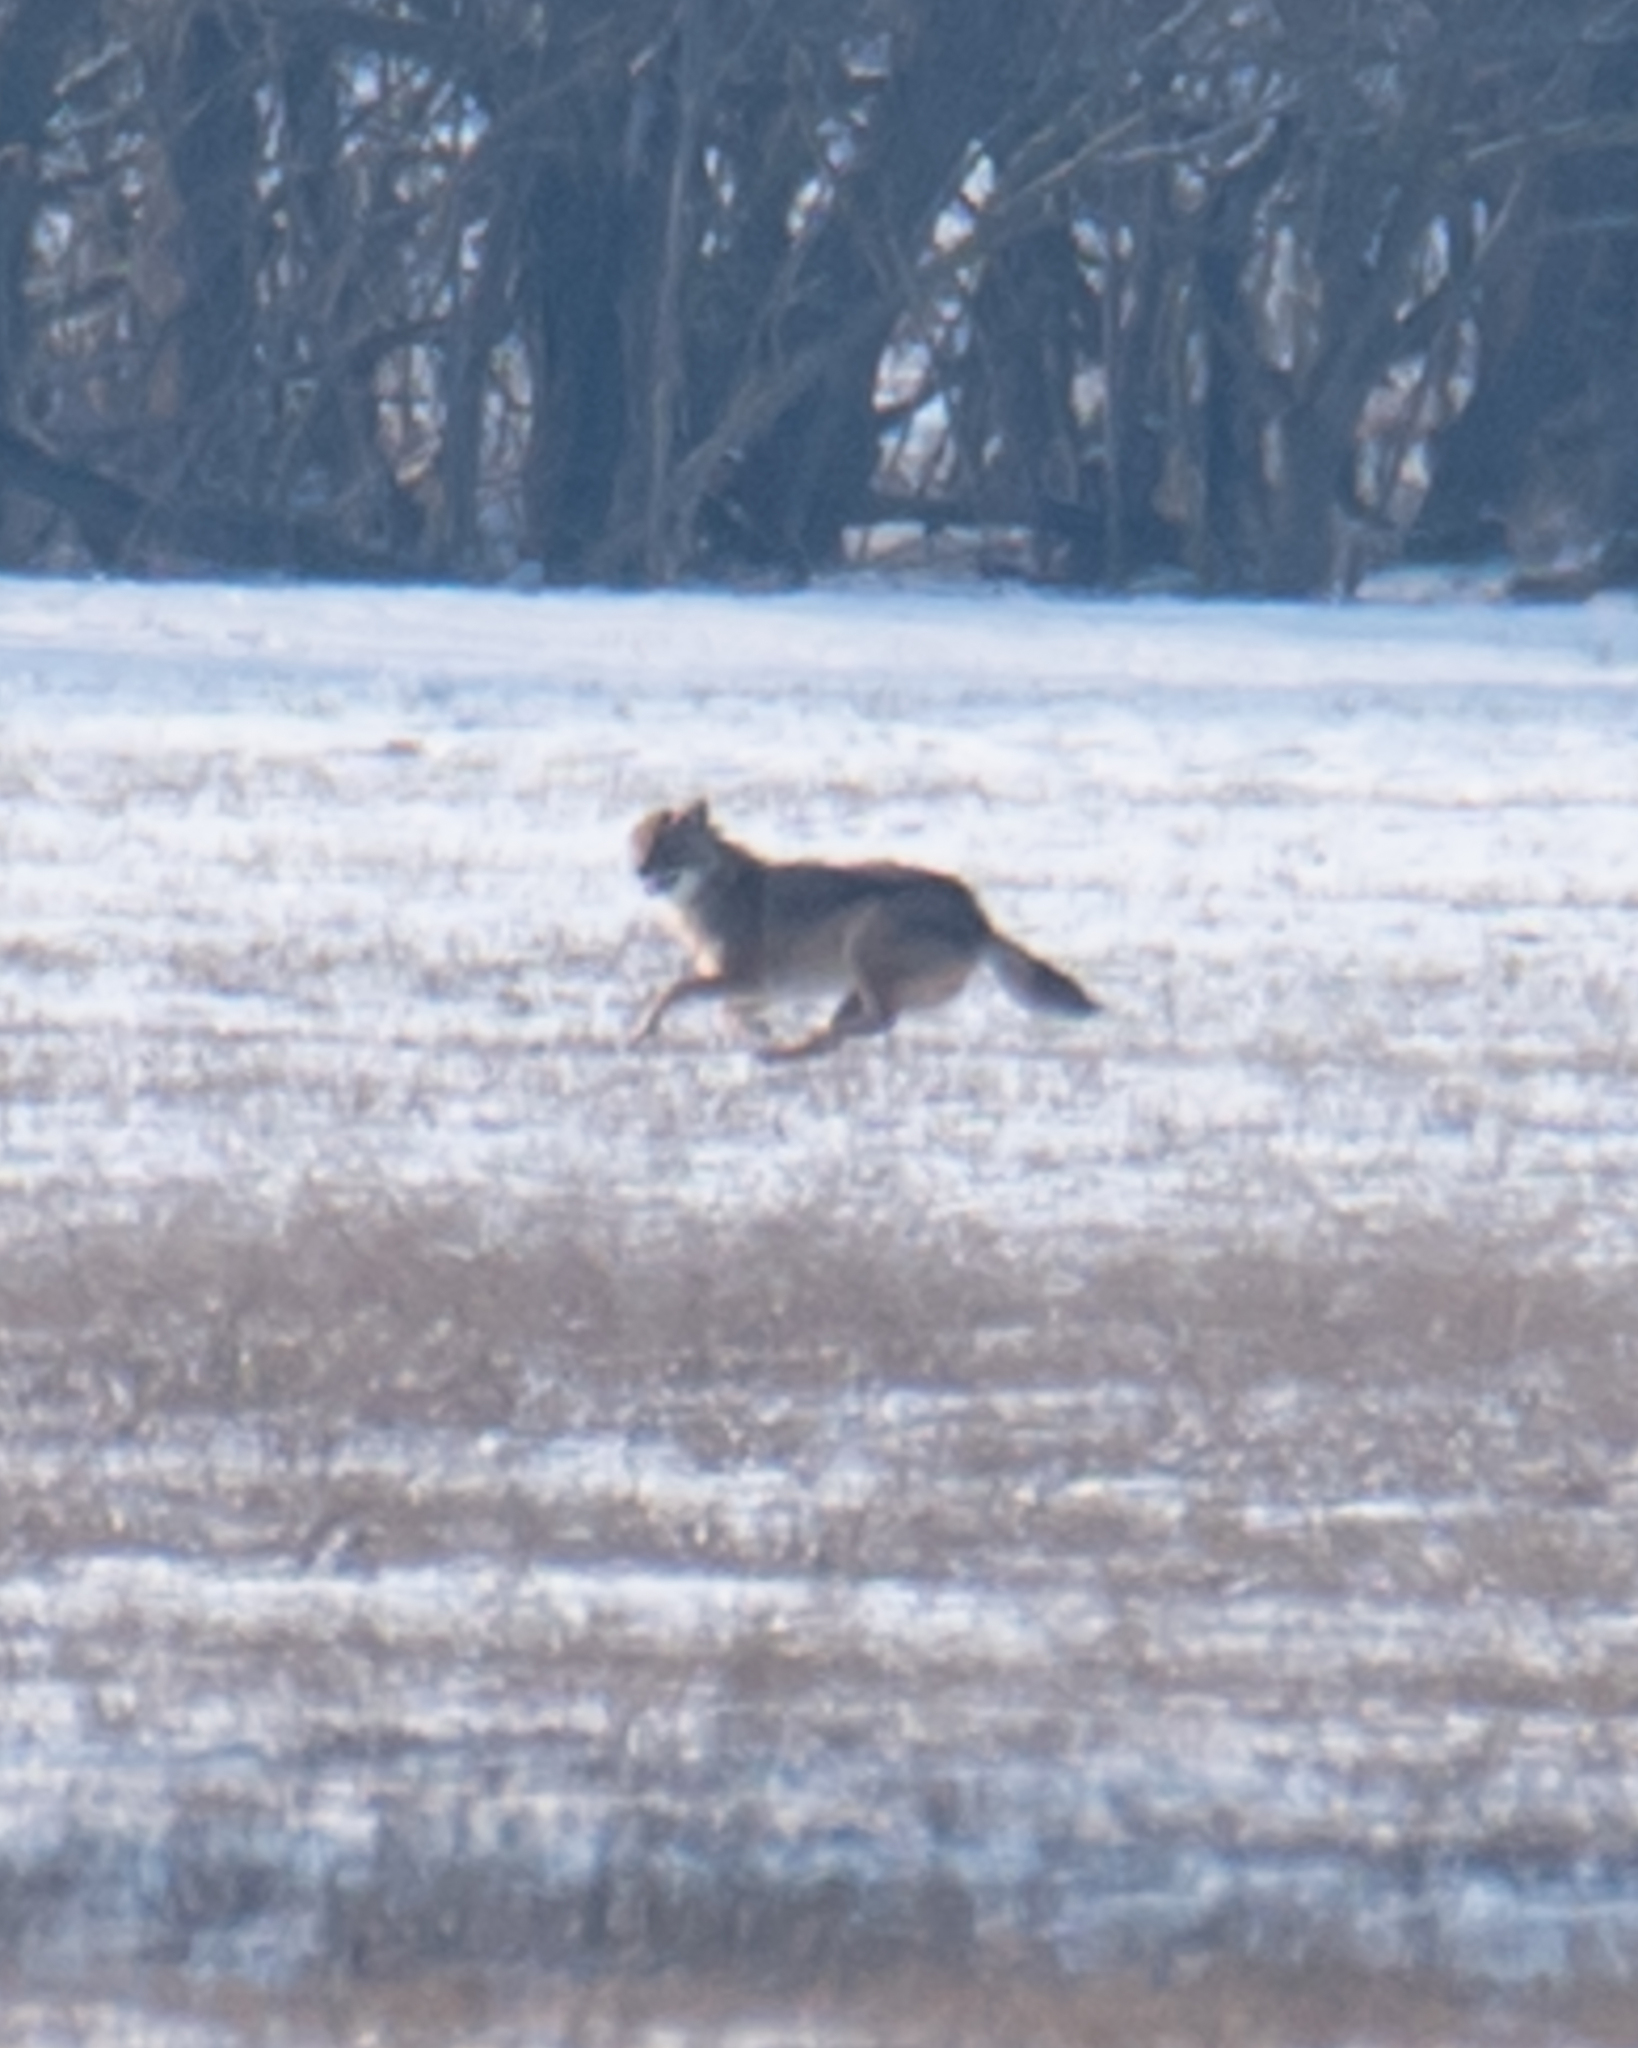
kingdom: Animalia
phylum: Chordata
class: Mammalia
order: Carnivora
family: Canidae
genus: Canis
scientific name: Canis lupus
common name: Gray wolf
